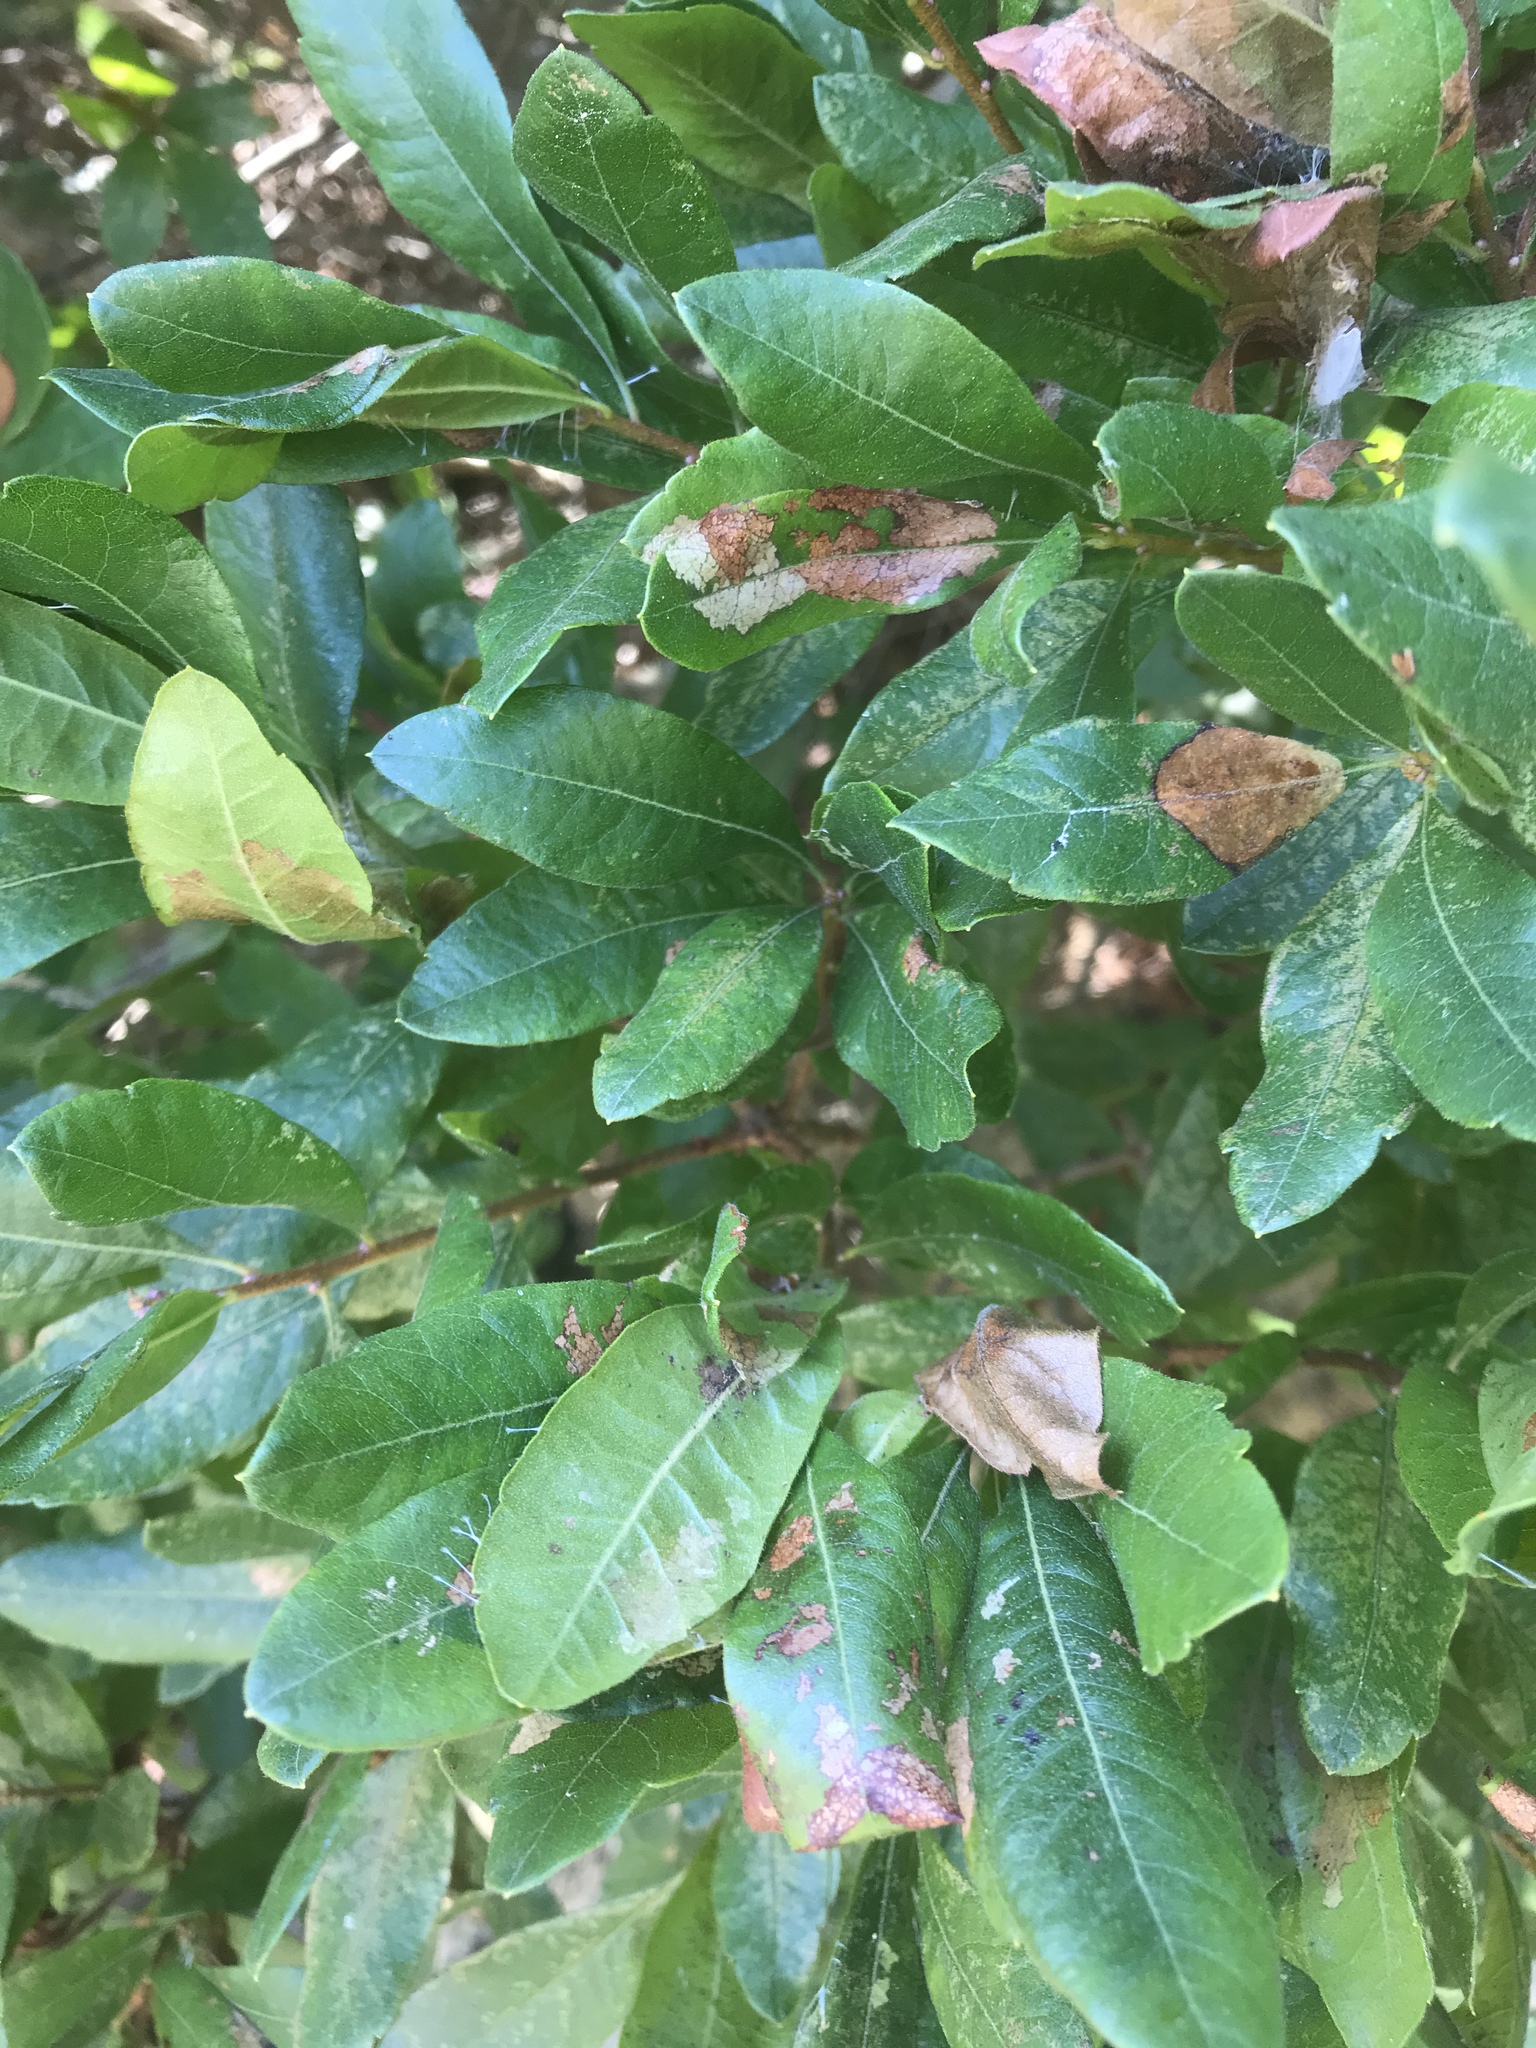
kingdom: Plantae
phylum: Tracheophyta
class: Magnoliopsida
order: Fagales
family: Myricaceae
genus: Morella
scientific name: Morella pensylvanica
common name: Northern bayberry
